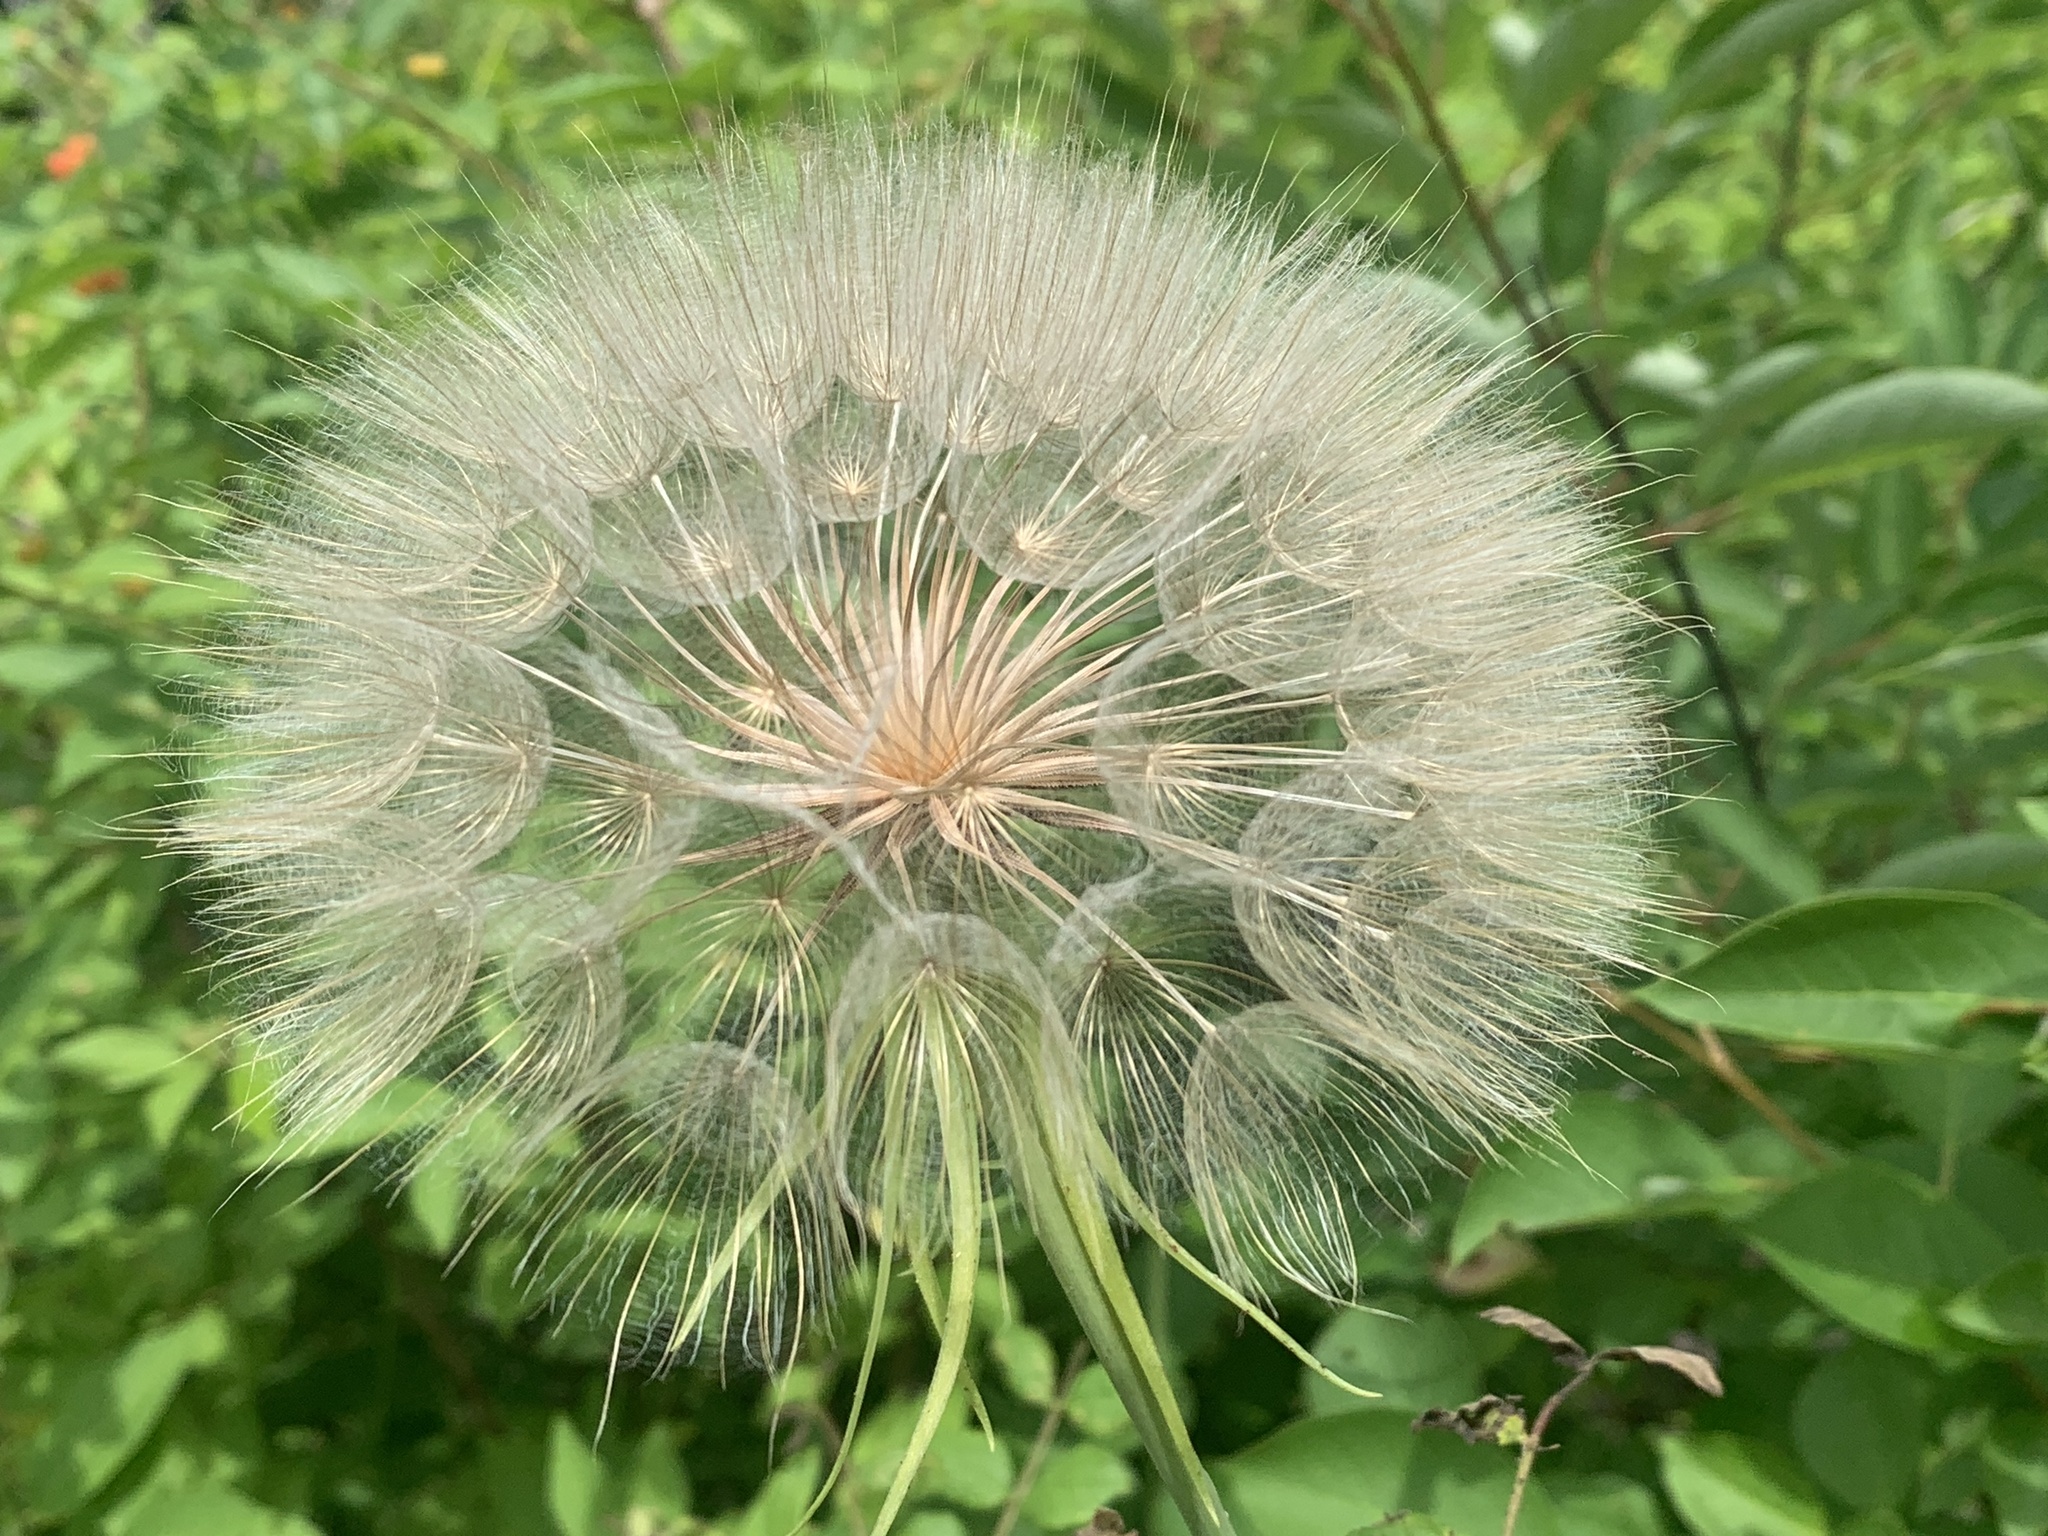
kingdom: Plantae
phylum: Tracheophyta
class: Magnoliopsida
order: Asterales
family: Asteraceae
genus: Tragopogon
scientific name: Tragopogon dubius
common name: Yellow salsify
